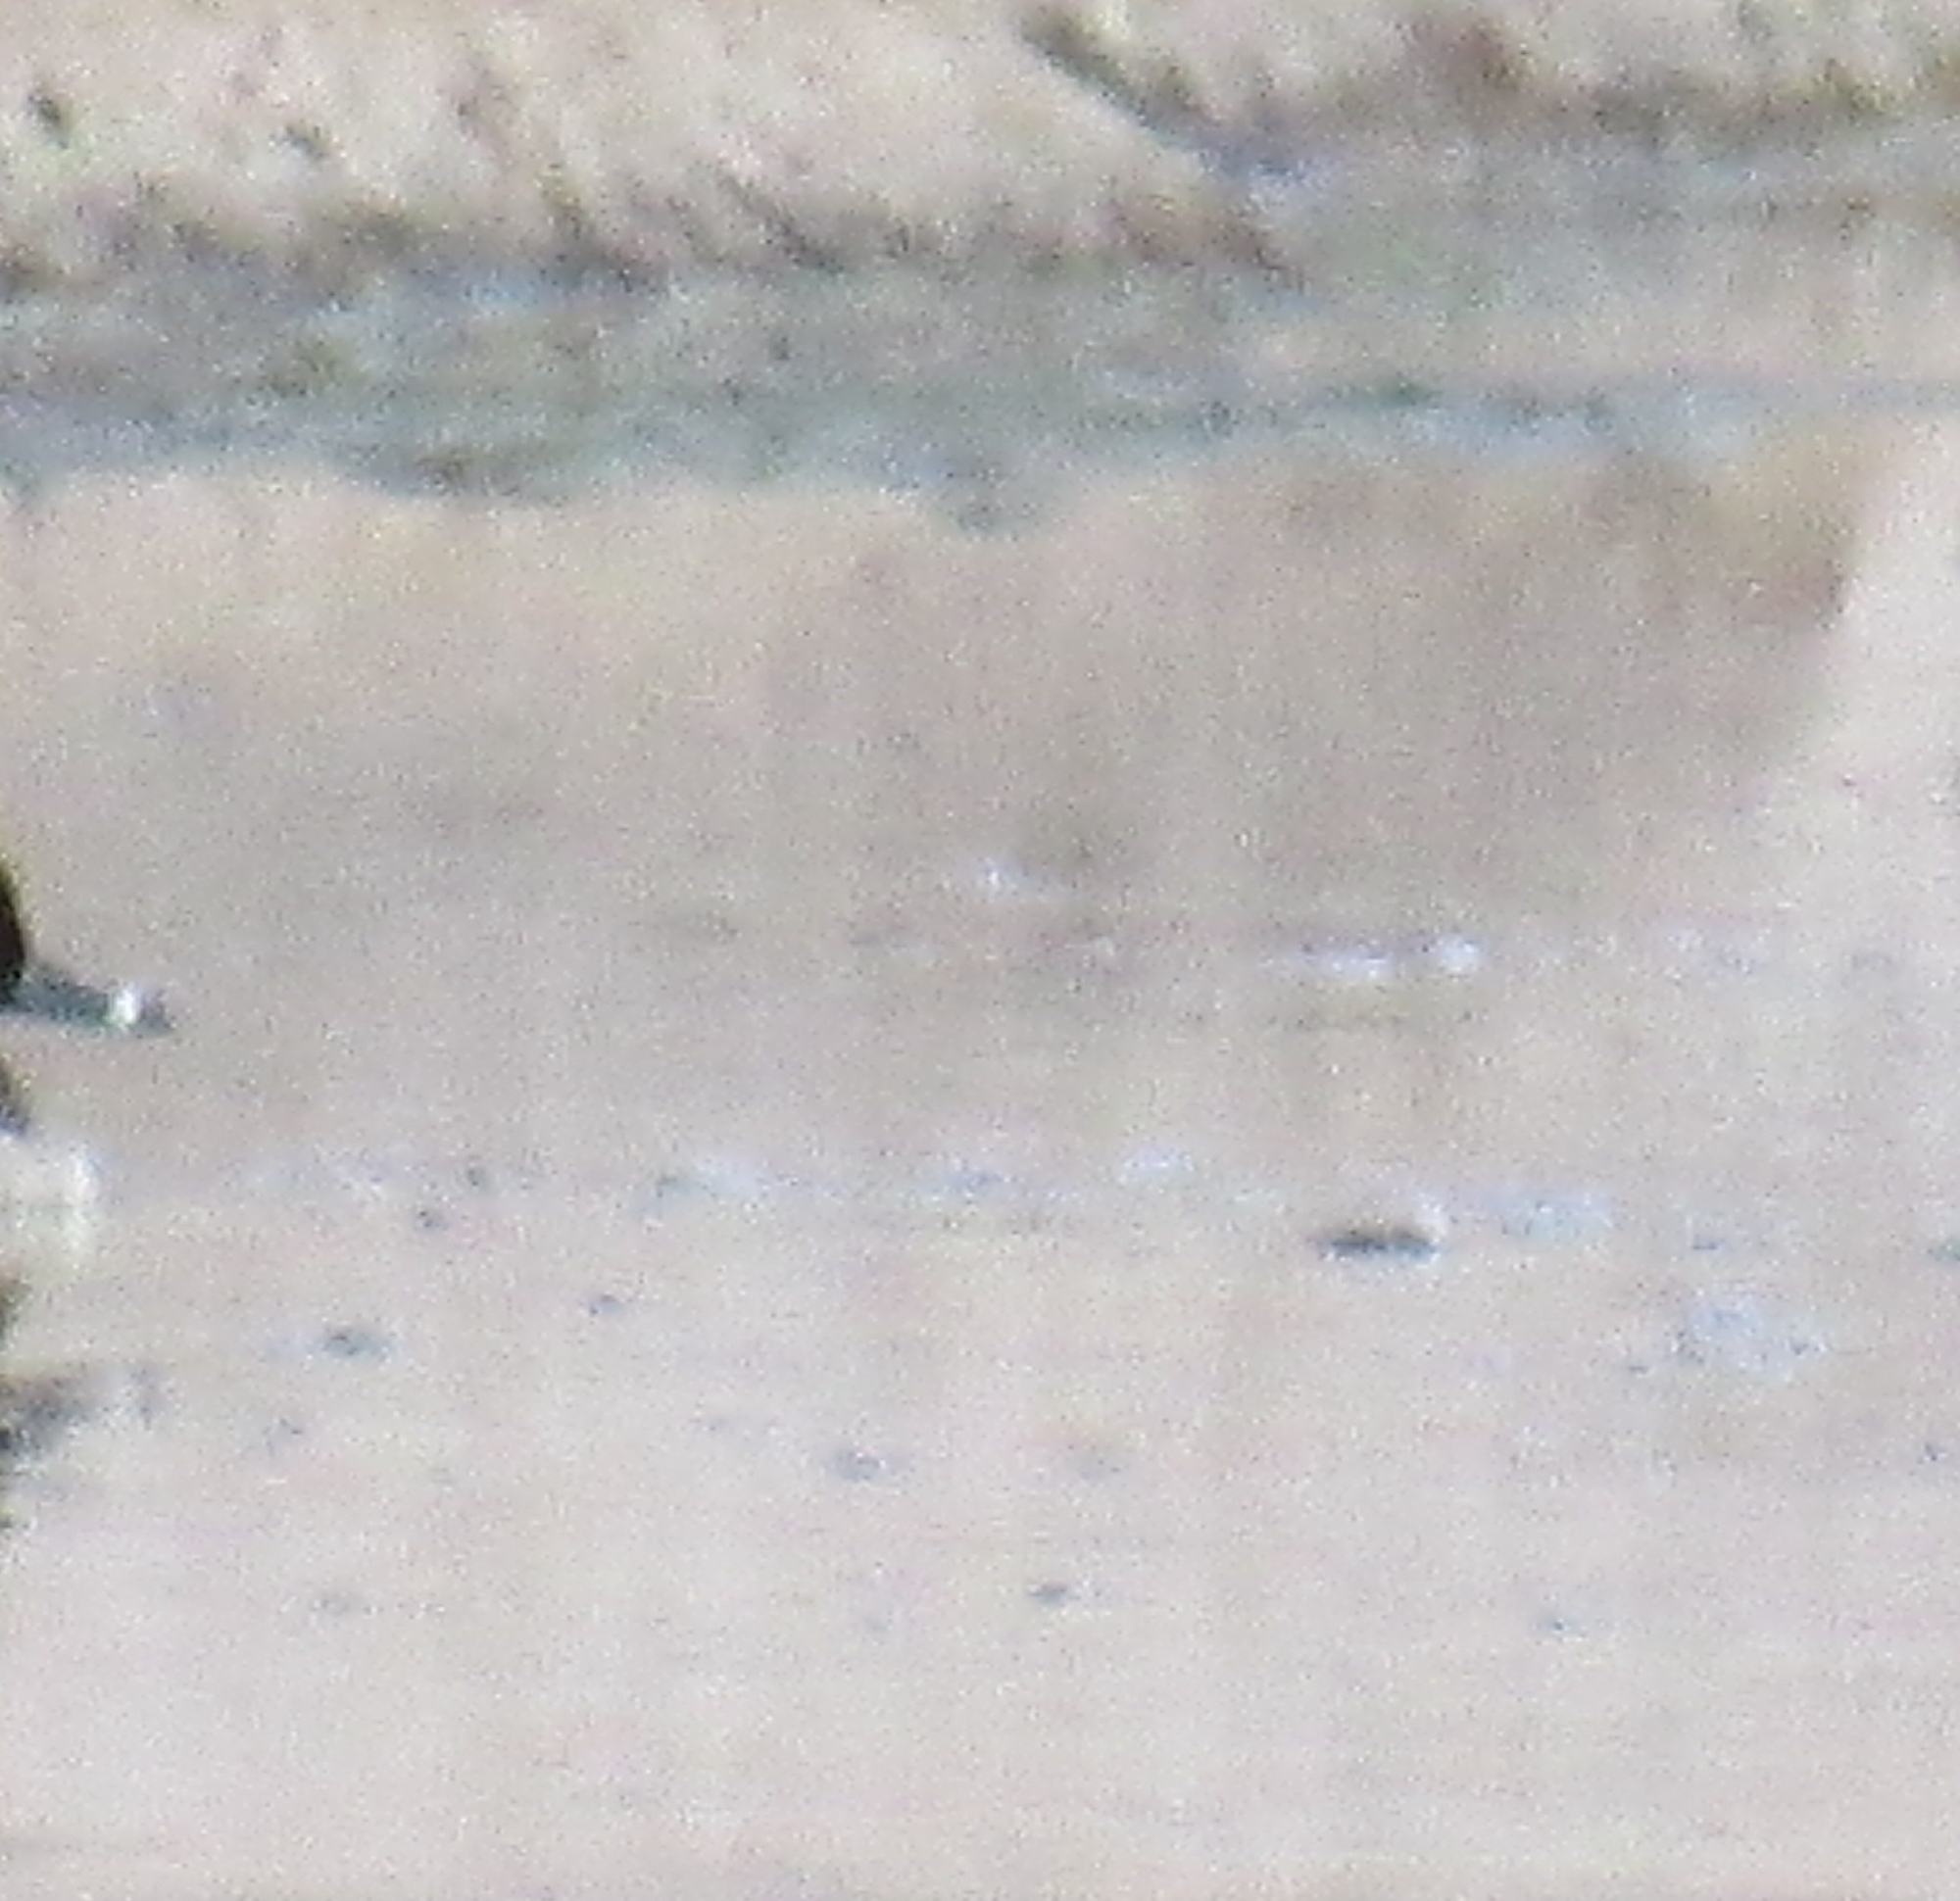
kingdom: Animalia
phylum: Chordata
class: Aves
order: Anseriformes
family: Anatidae
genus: Aythya
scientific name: Aythya collaris
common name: Ring-necked duck
